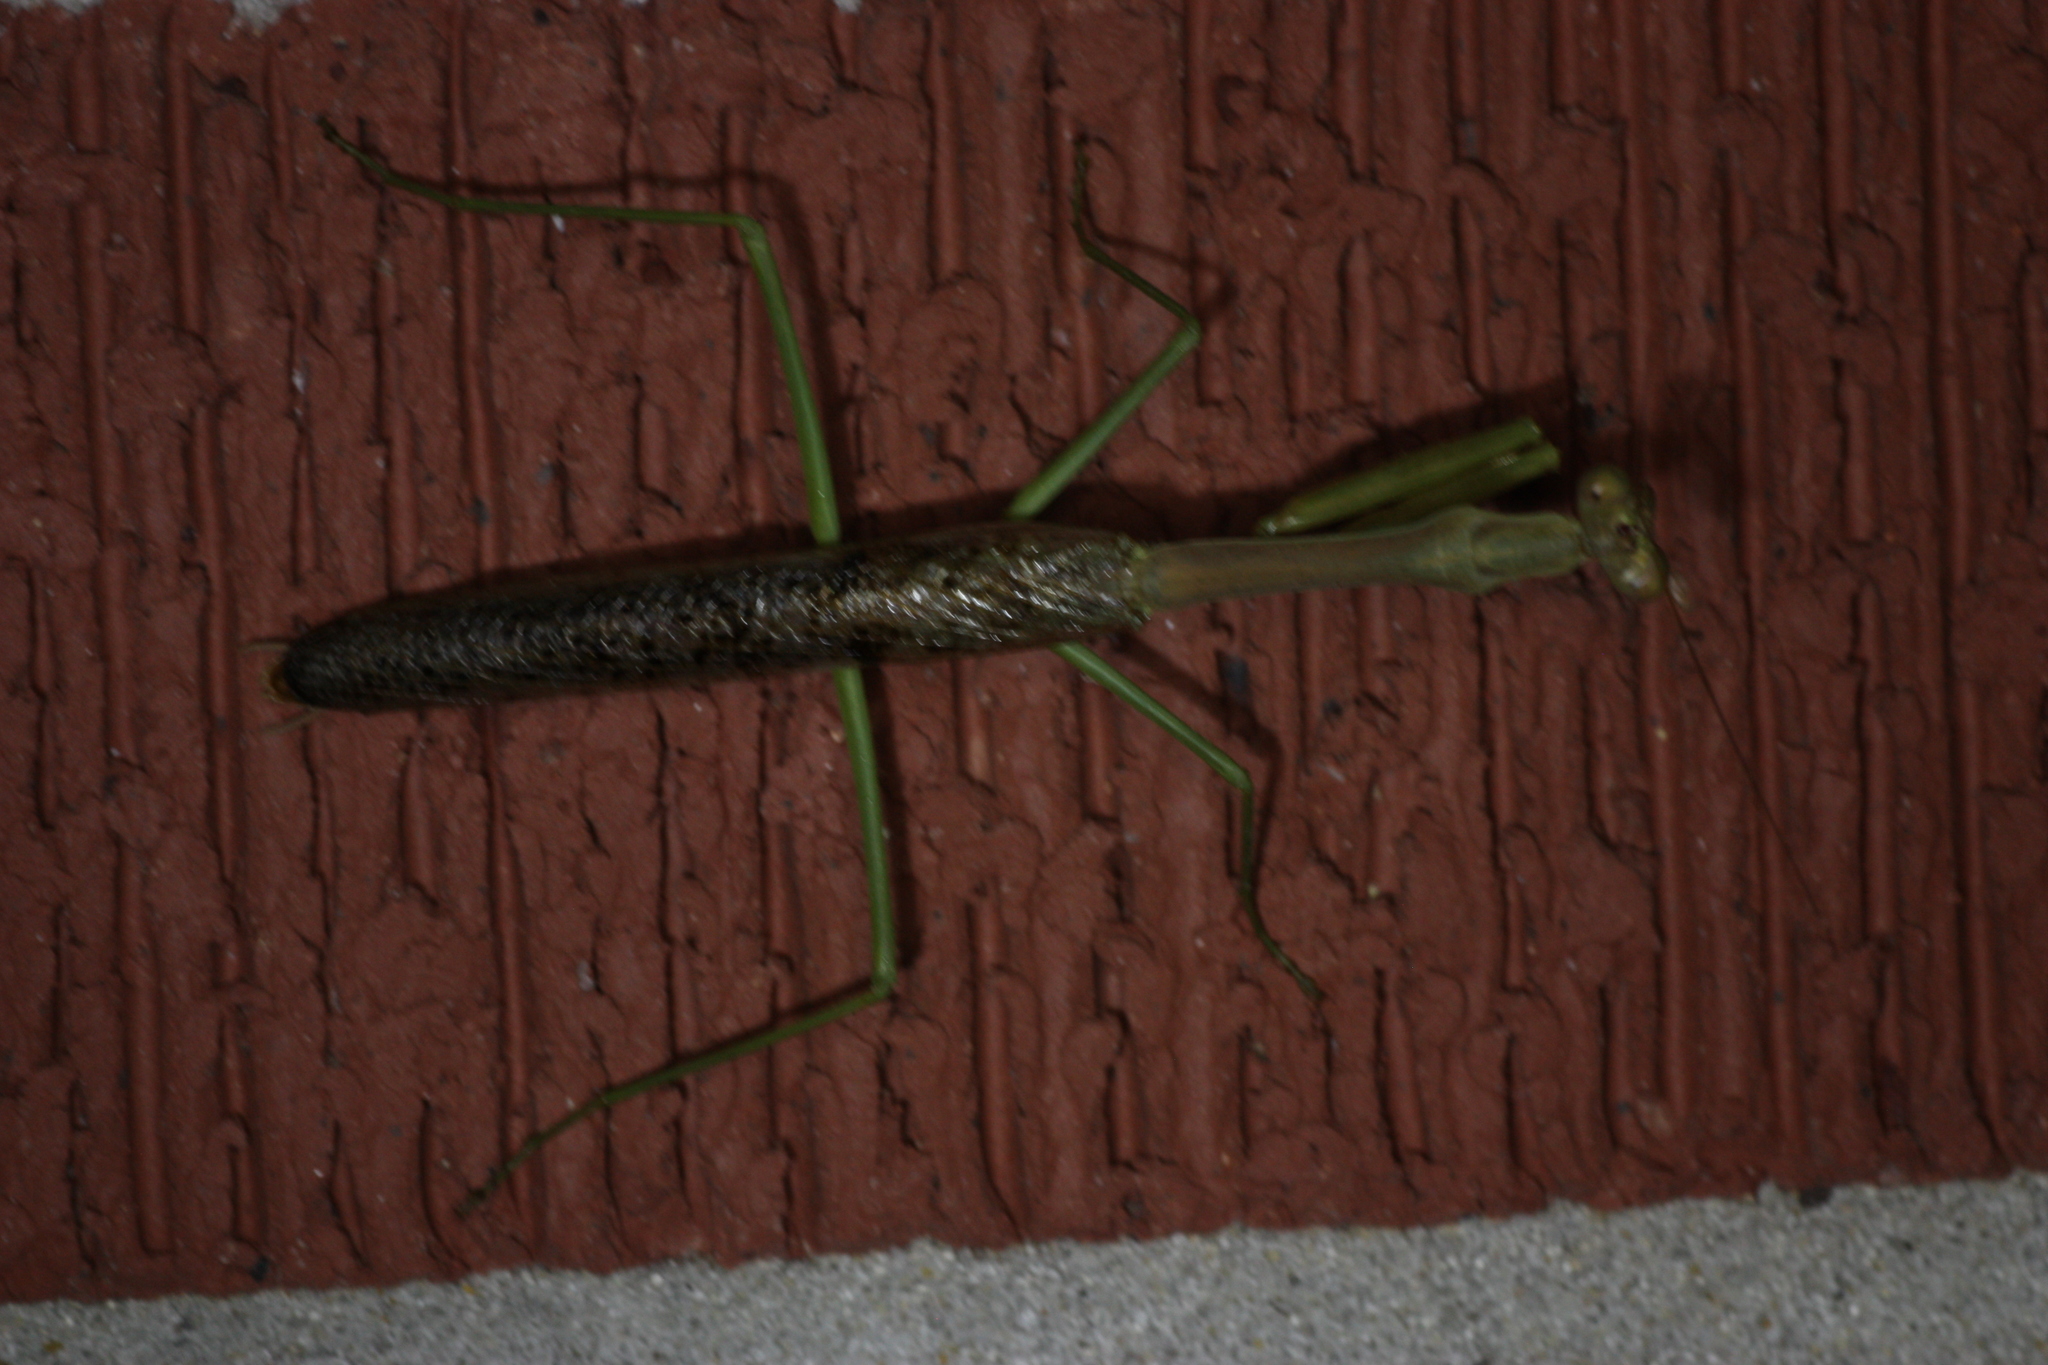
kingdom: Animalia
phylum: Arthropoda
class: Insecta
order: Mantodea
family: Mantidae
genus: Stagmomantis
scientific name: Stagmomantis carolina
